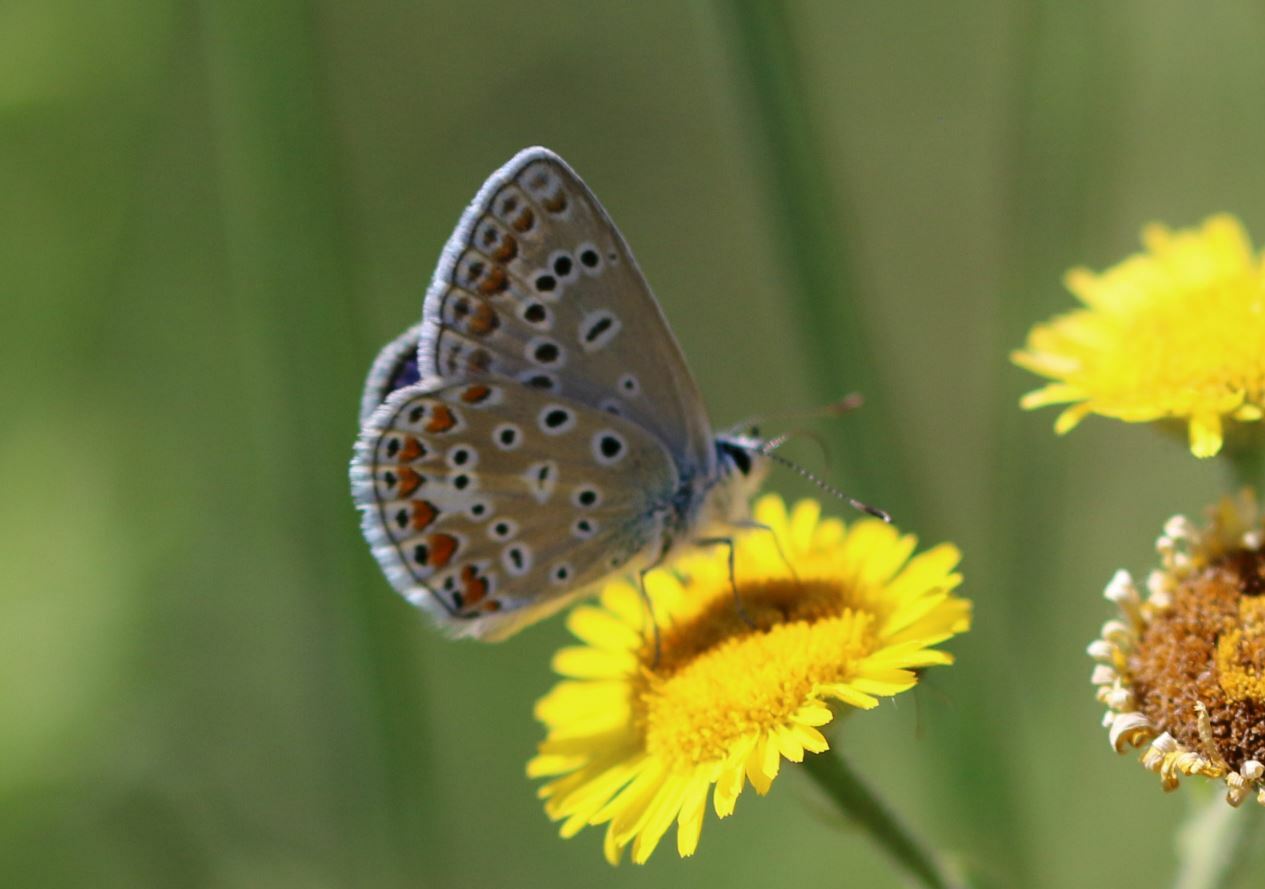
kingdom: Animalia
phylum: Arthropoda
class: Insecta
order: Lepidoptera
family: Lycaenidae
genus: Polyommatus
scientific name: Polyommatus icarus
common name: Common blue
